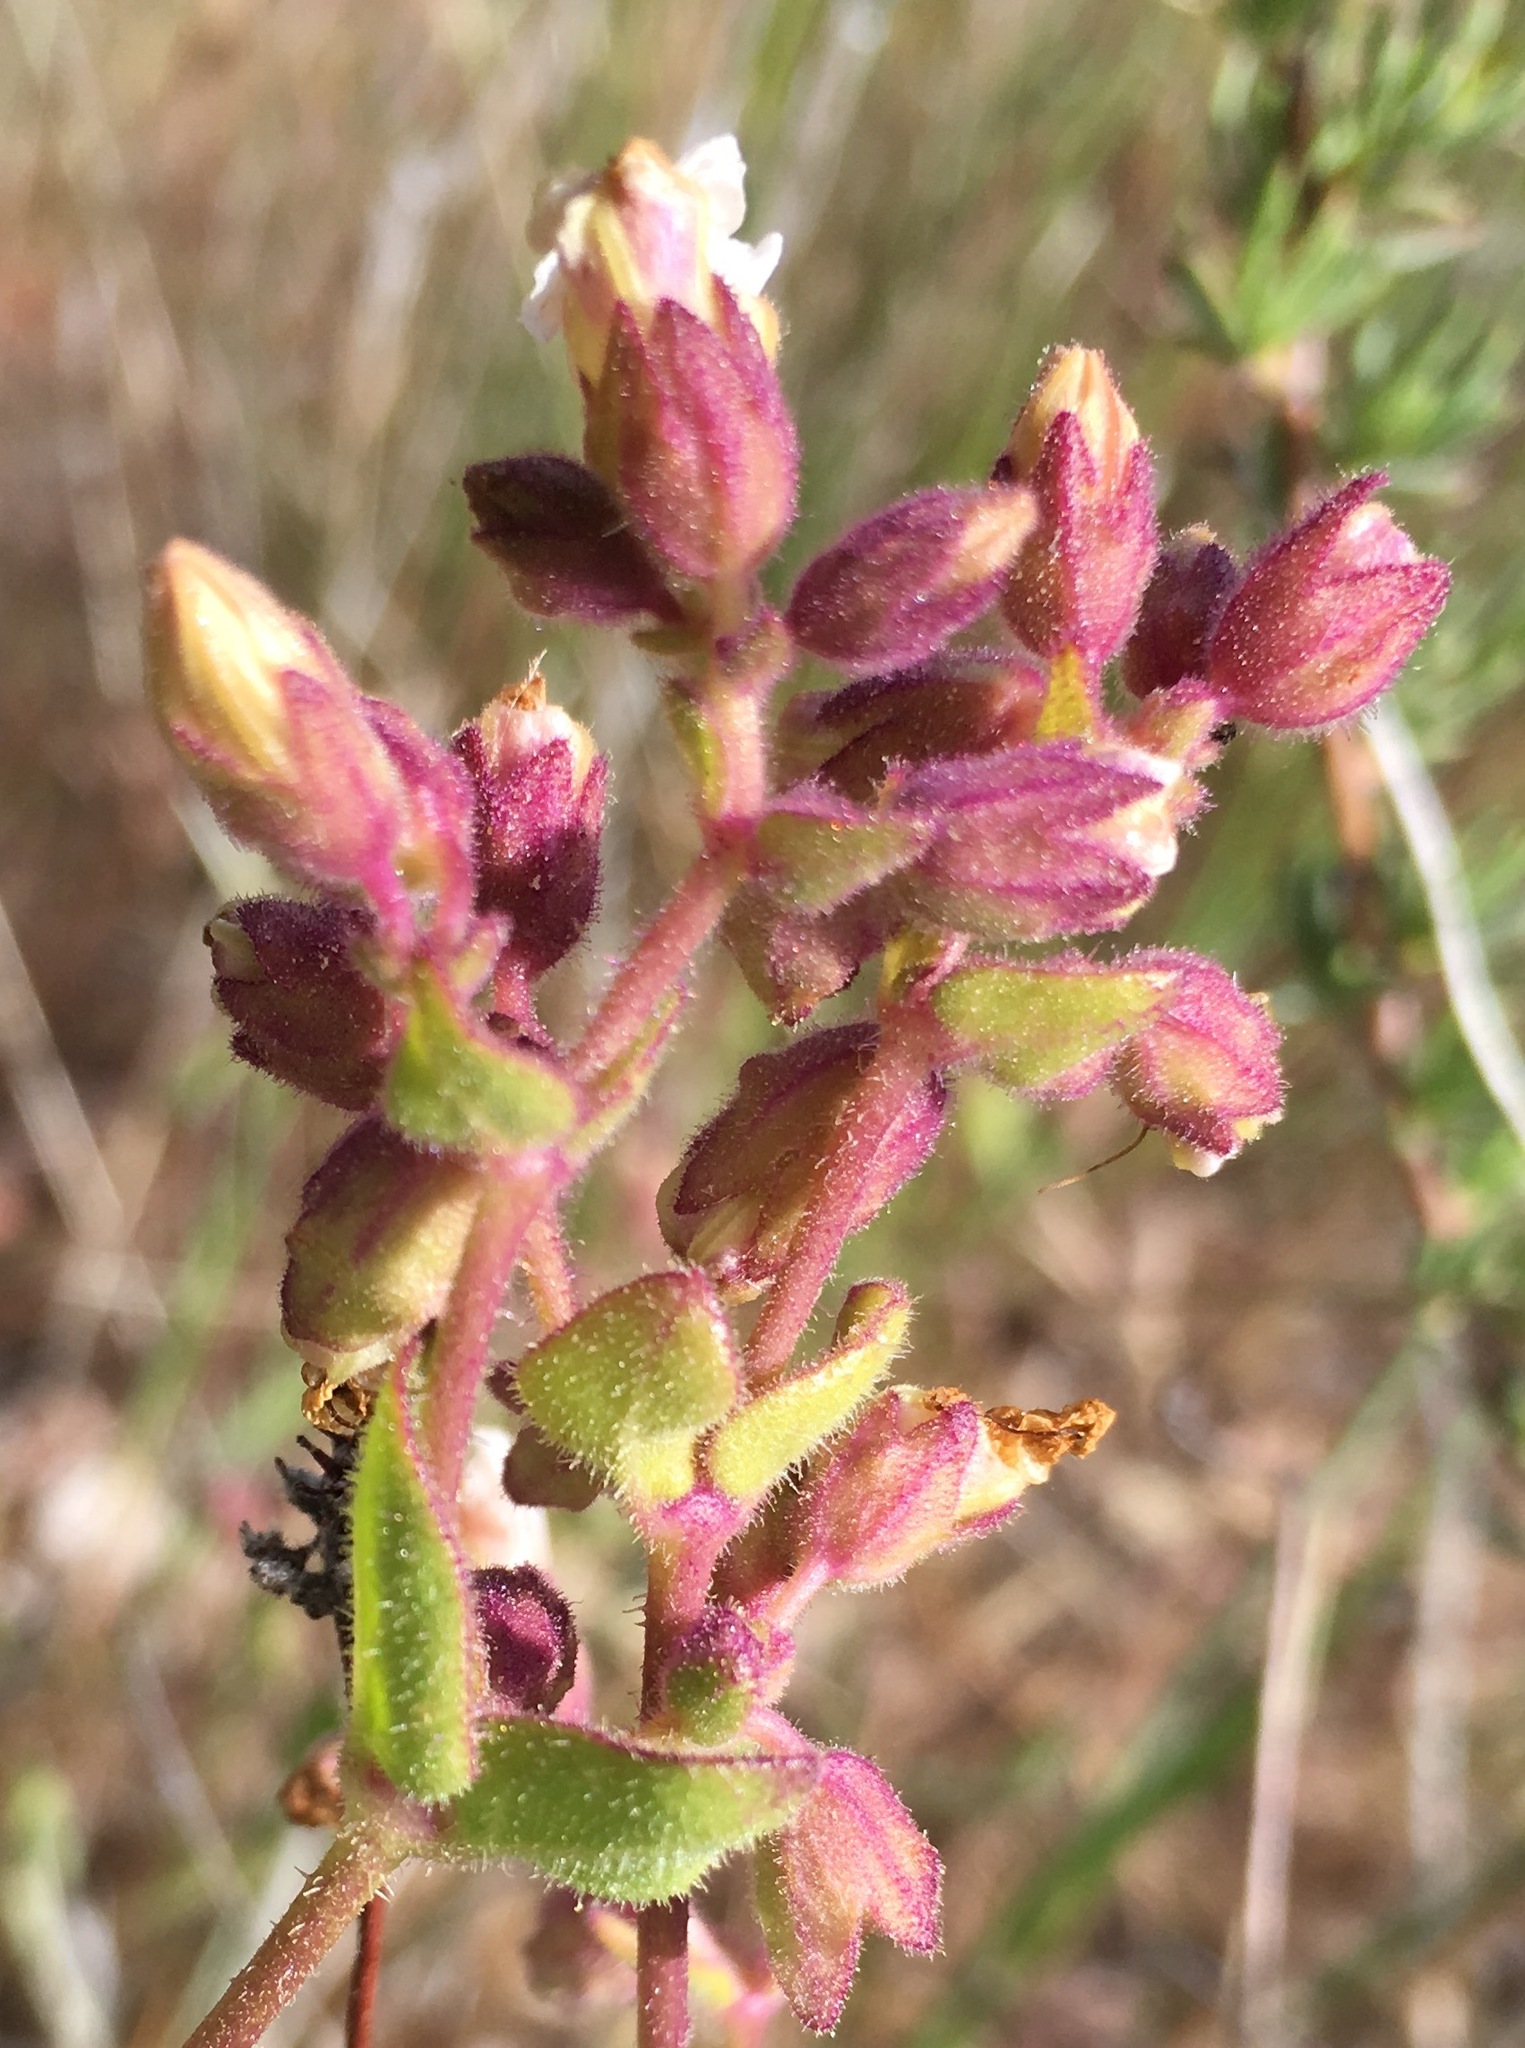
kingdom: Plantae
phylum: Tracheophyta
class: Magnoliopsida
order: Caryophyllales
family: Nyctaginaceae
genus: Mirabilis
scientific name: Mirabilis laevis
